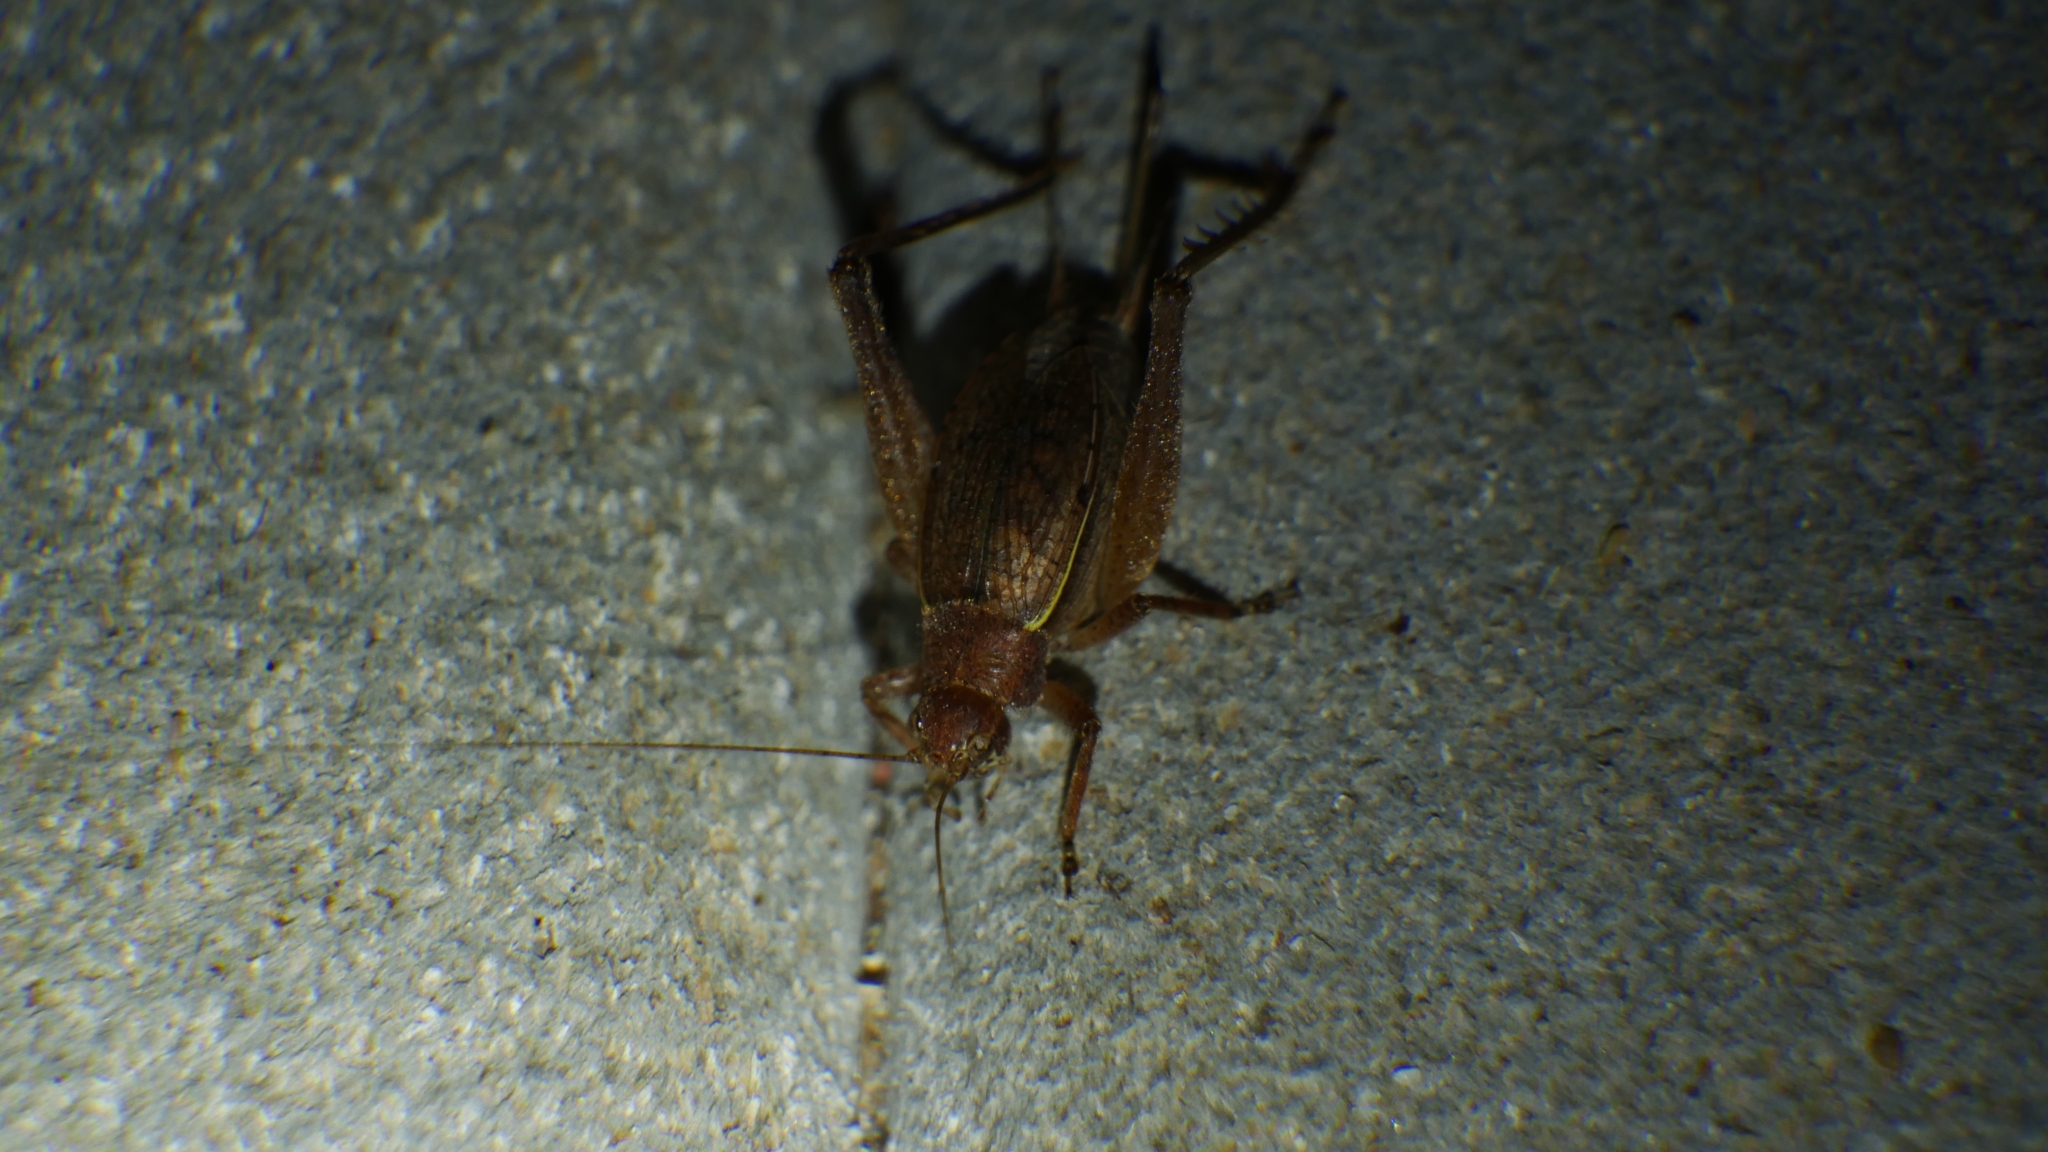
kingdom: Animalia
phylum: Arthropoda
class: Insecta
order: Orthoptera
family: Gryllidae
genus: Hapithus
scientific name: Hapithus agitator
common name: Restless bush cricket
